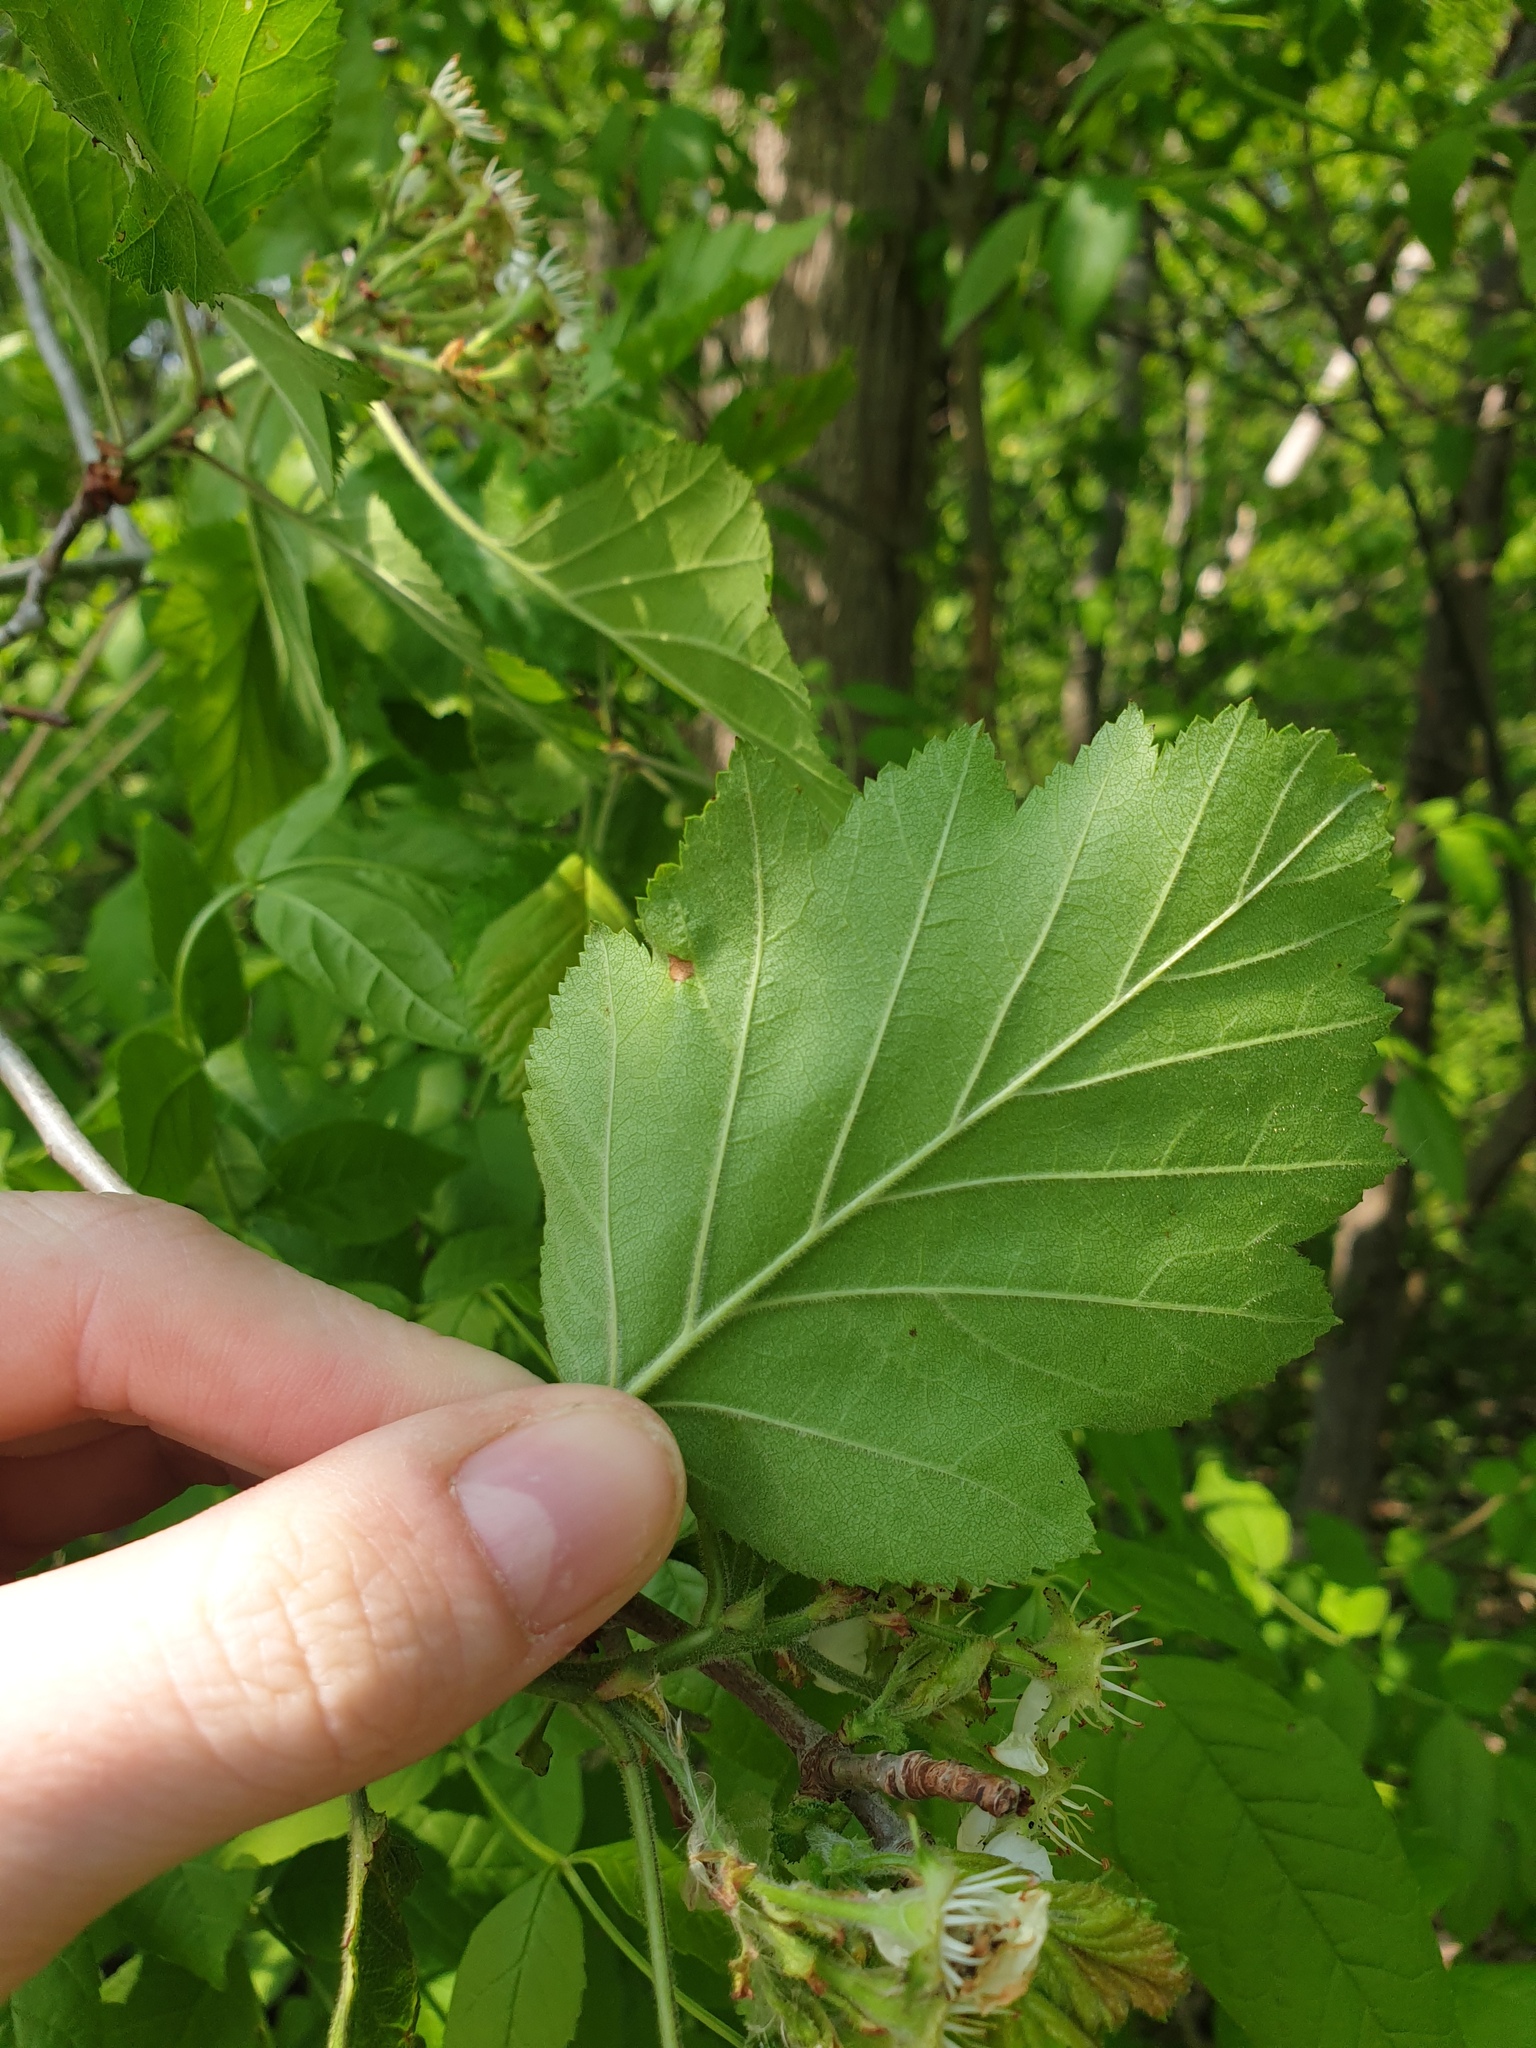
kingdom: Plantae
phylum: Tracheophyta
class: Magnoliopsida
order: Rosales
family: Rosaceae
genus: Crataegus
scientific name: Crataegus mollis
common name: Downy hawthorn
